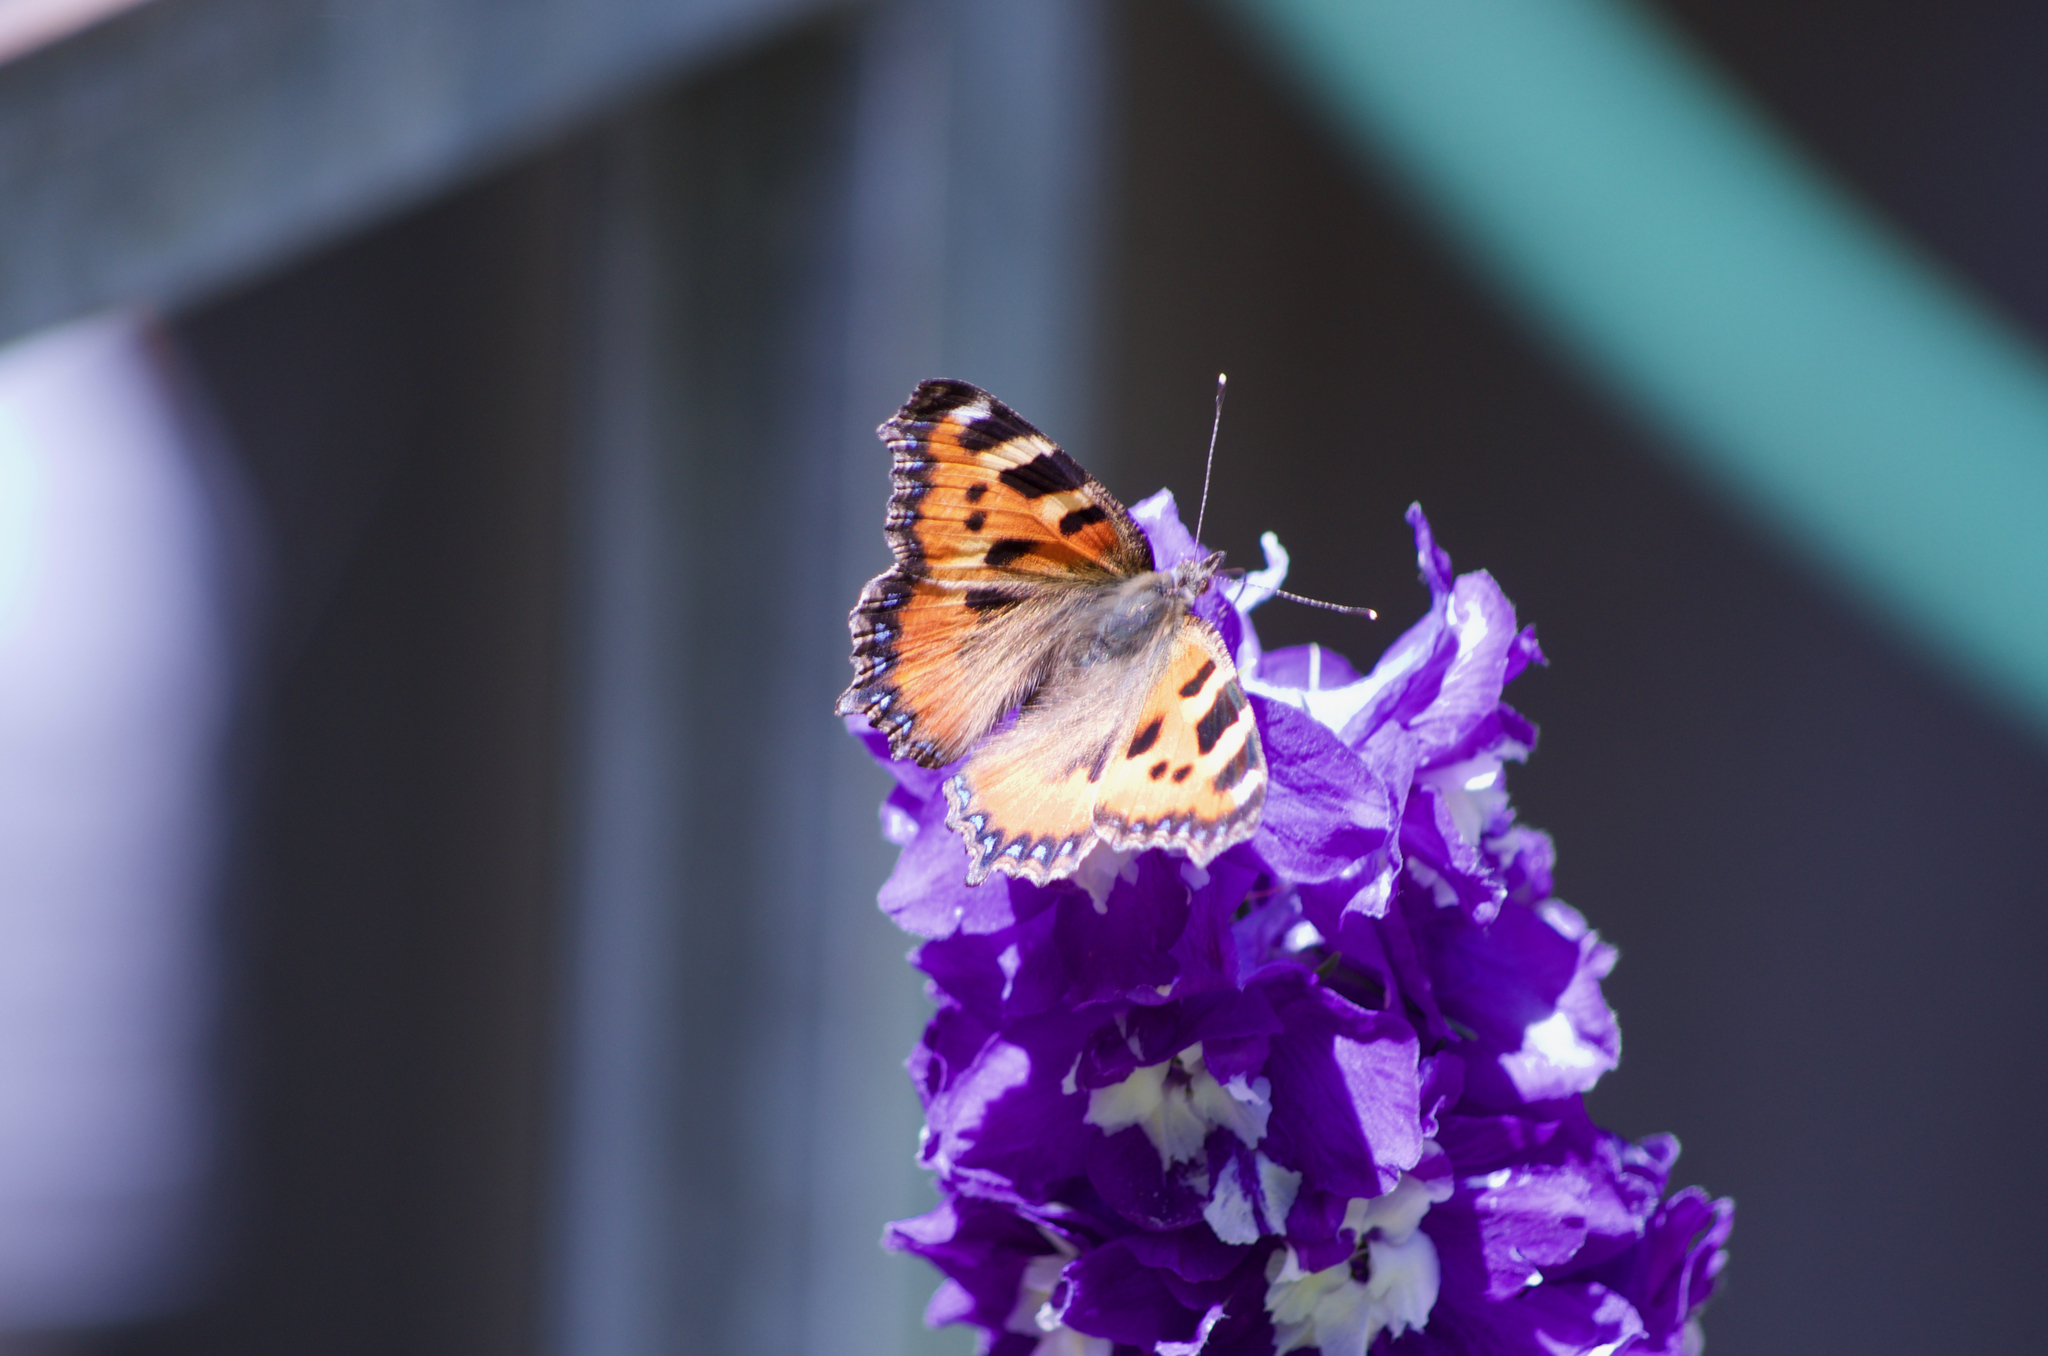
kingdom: Animalia
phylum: Arthropoda
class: Insecta
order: Lepidoptera
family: Nymphalidae
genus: Aglais
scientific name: Aglais urticae
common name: Small tortoiseshell
